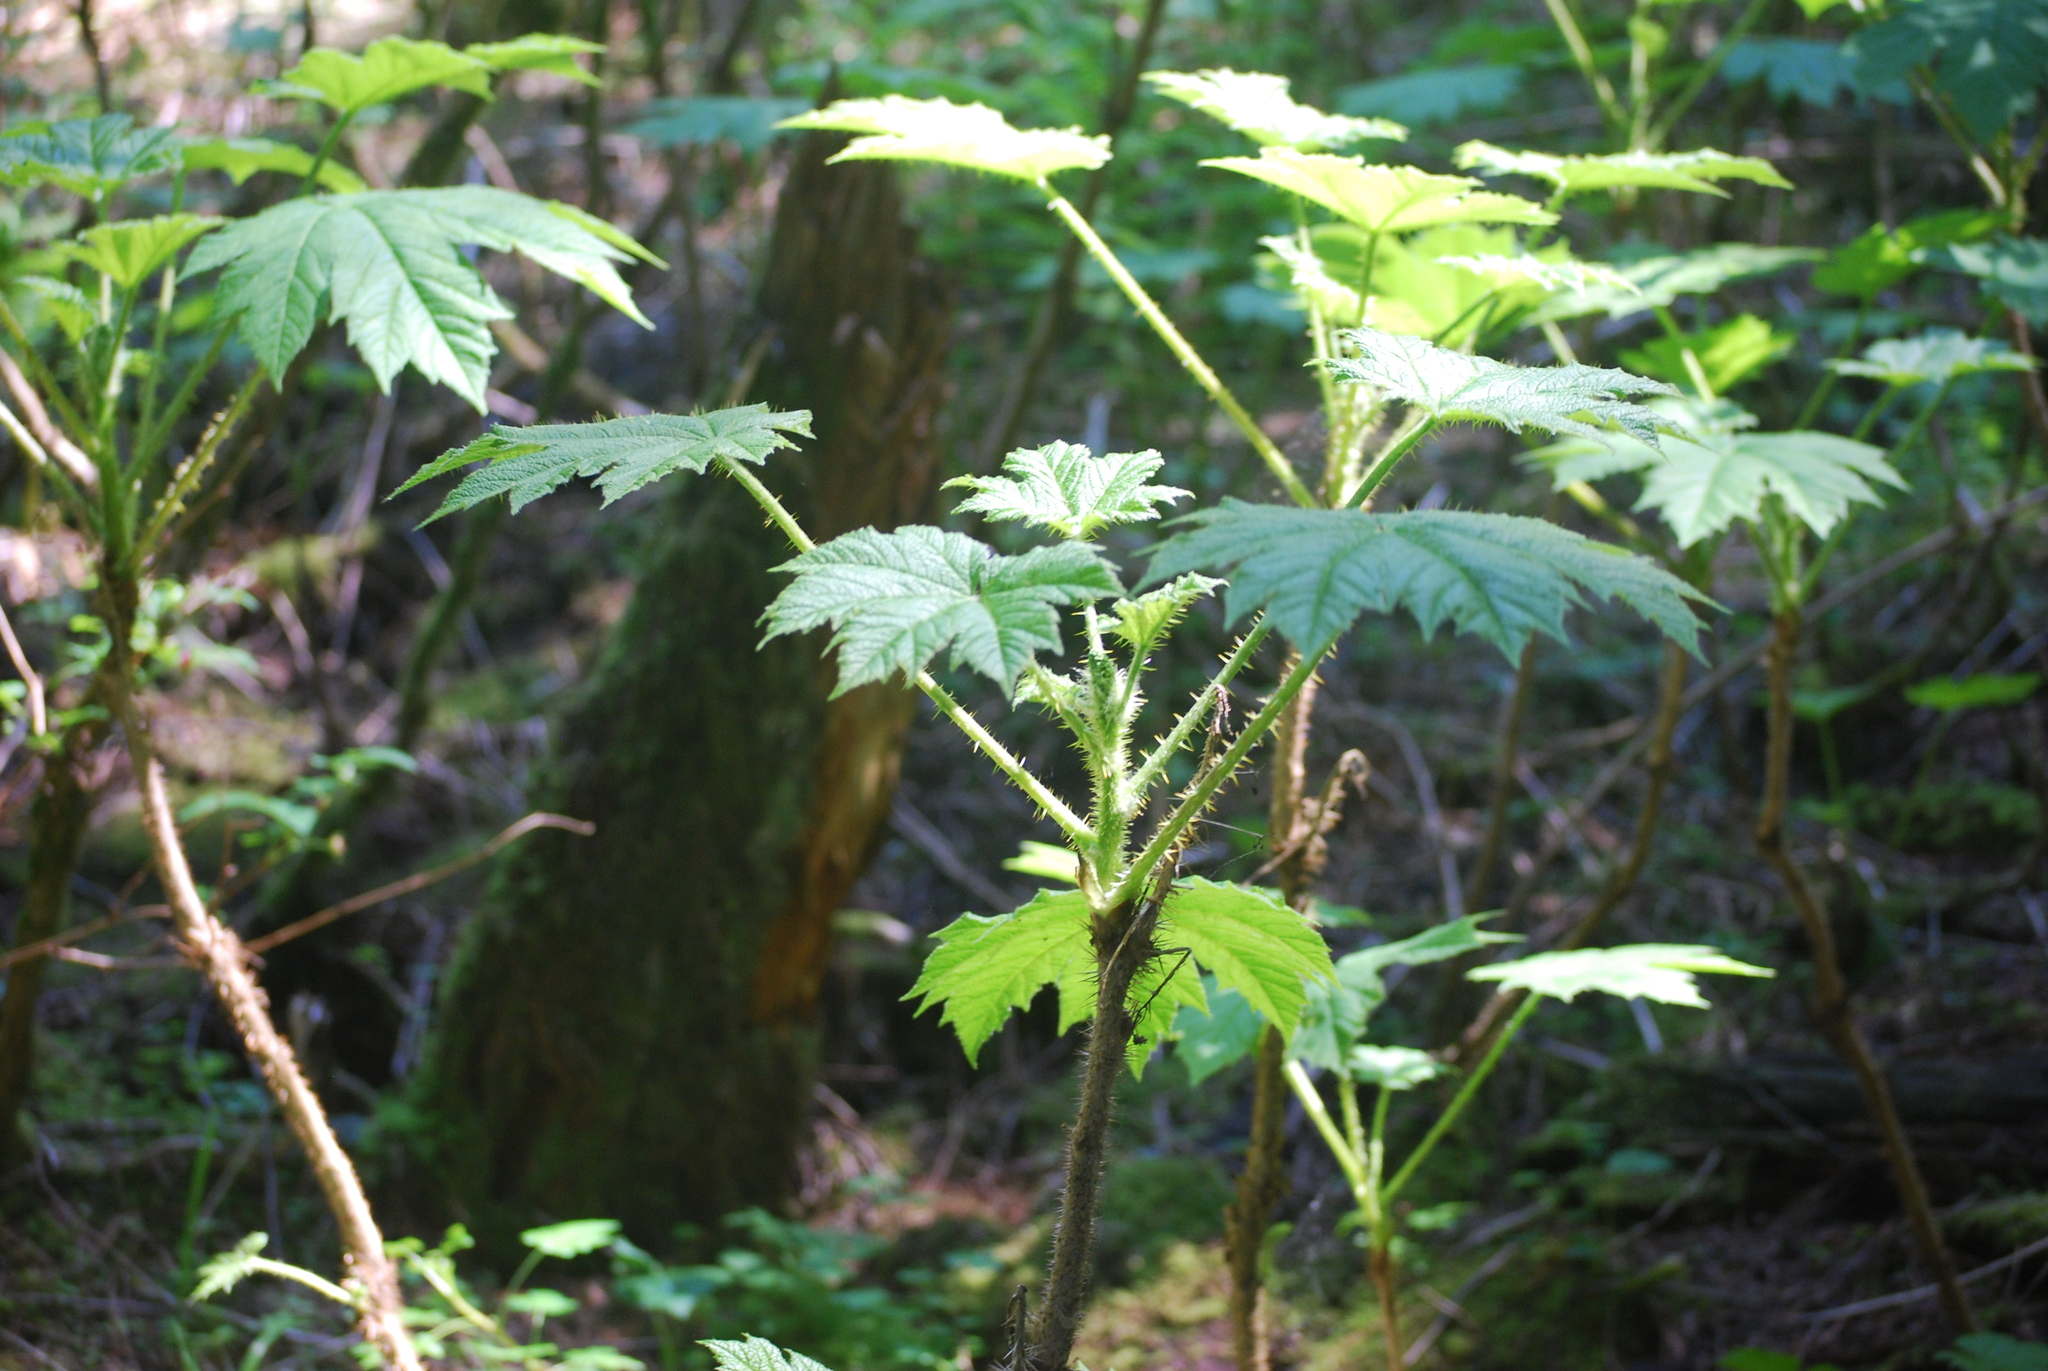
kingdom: Plantae
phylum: Tracheophyta
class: Magnoliopsida
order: Apiales
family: Araliaceae
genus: Oplopanax
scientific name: Oplopanax horridus
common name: Devil's walking-stick
